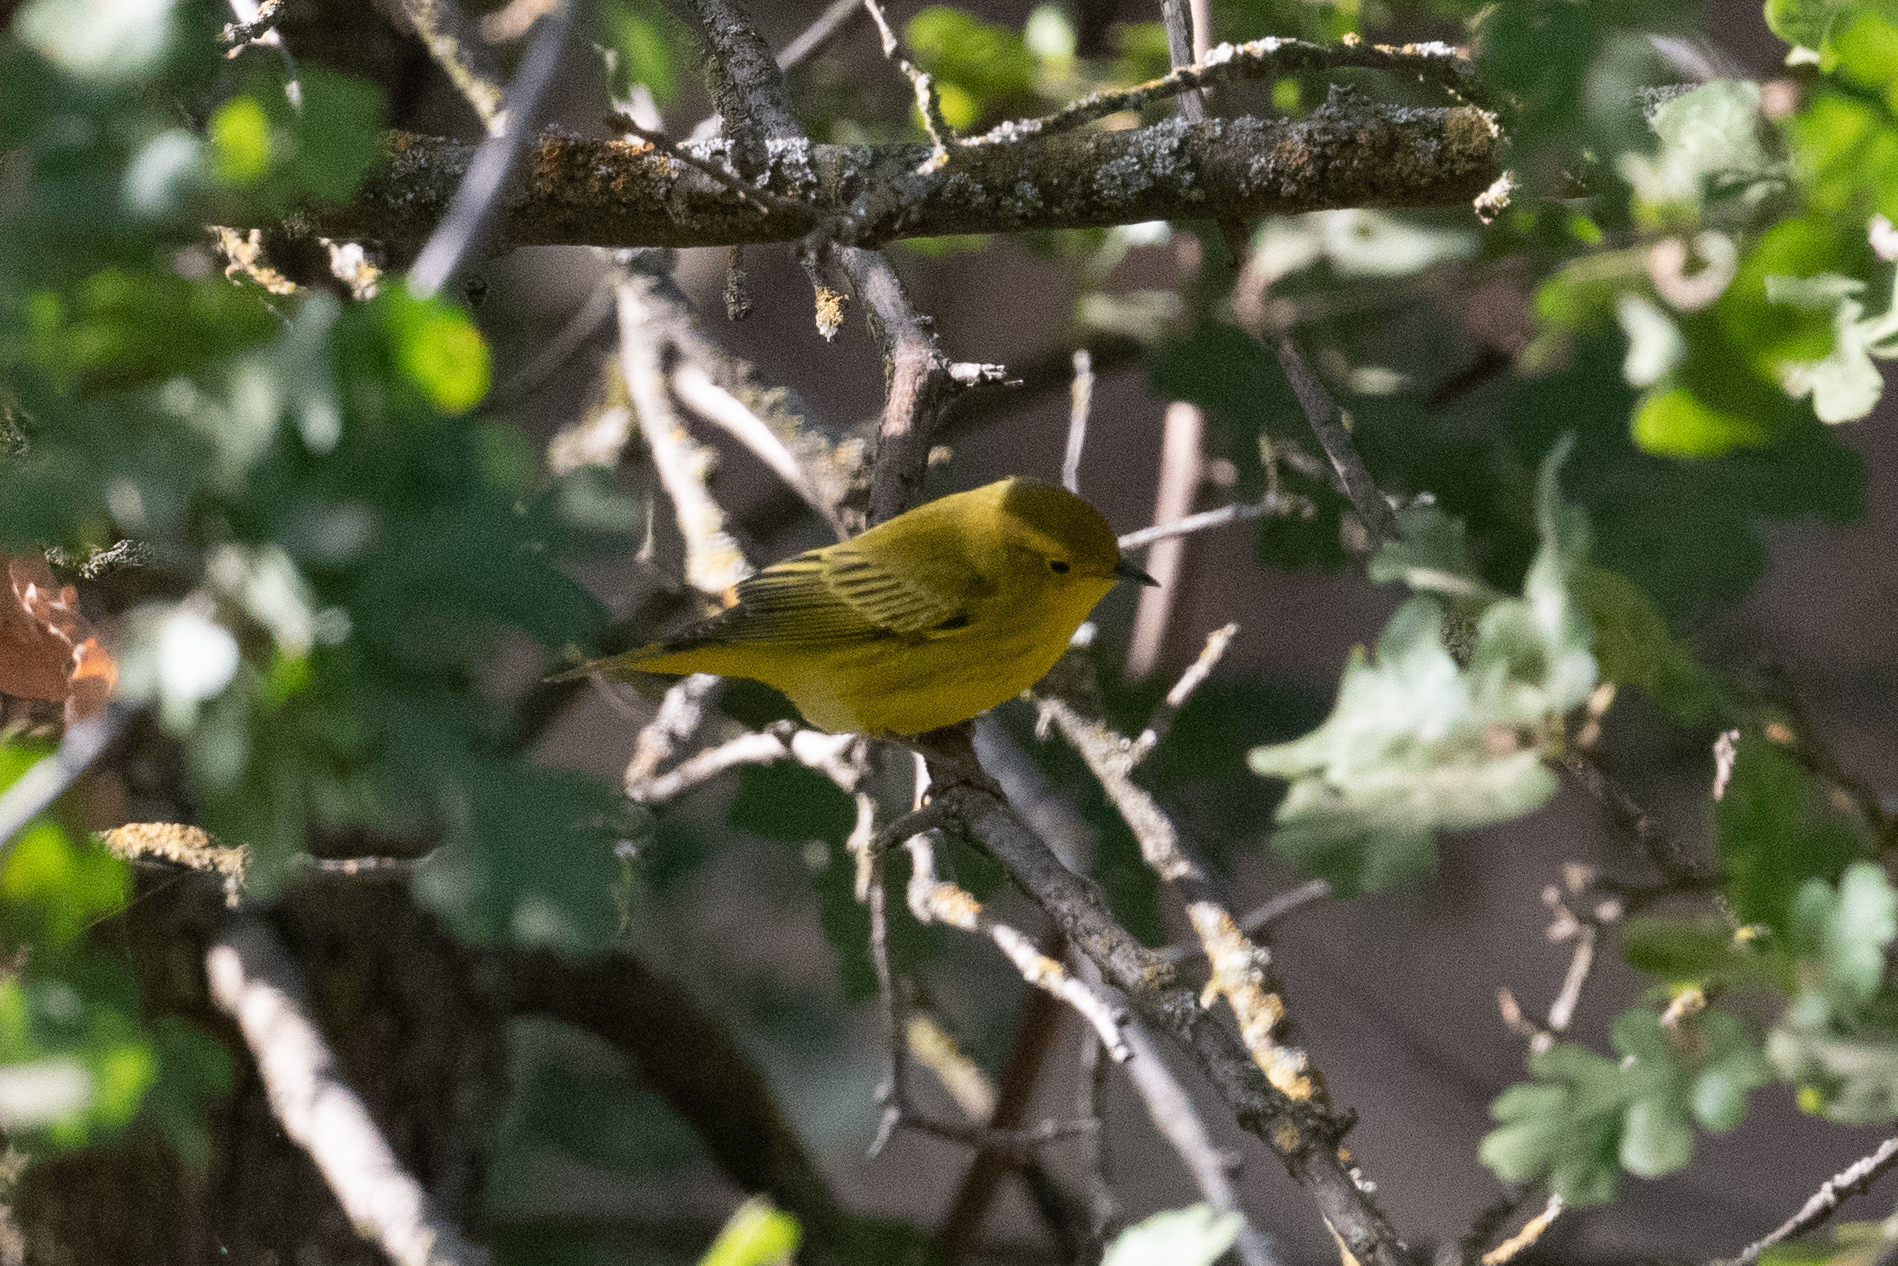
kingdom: Animalia
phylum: Chordata
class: Aves
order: Passeriformes
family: Parulidae
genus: Setophaga
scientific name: Setophaga petechia
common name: Yellow warbler
